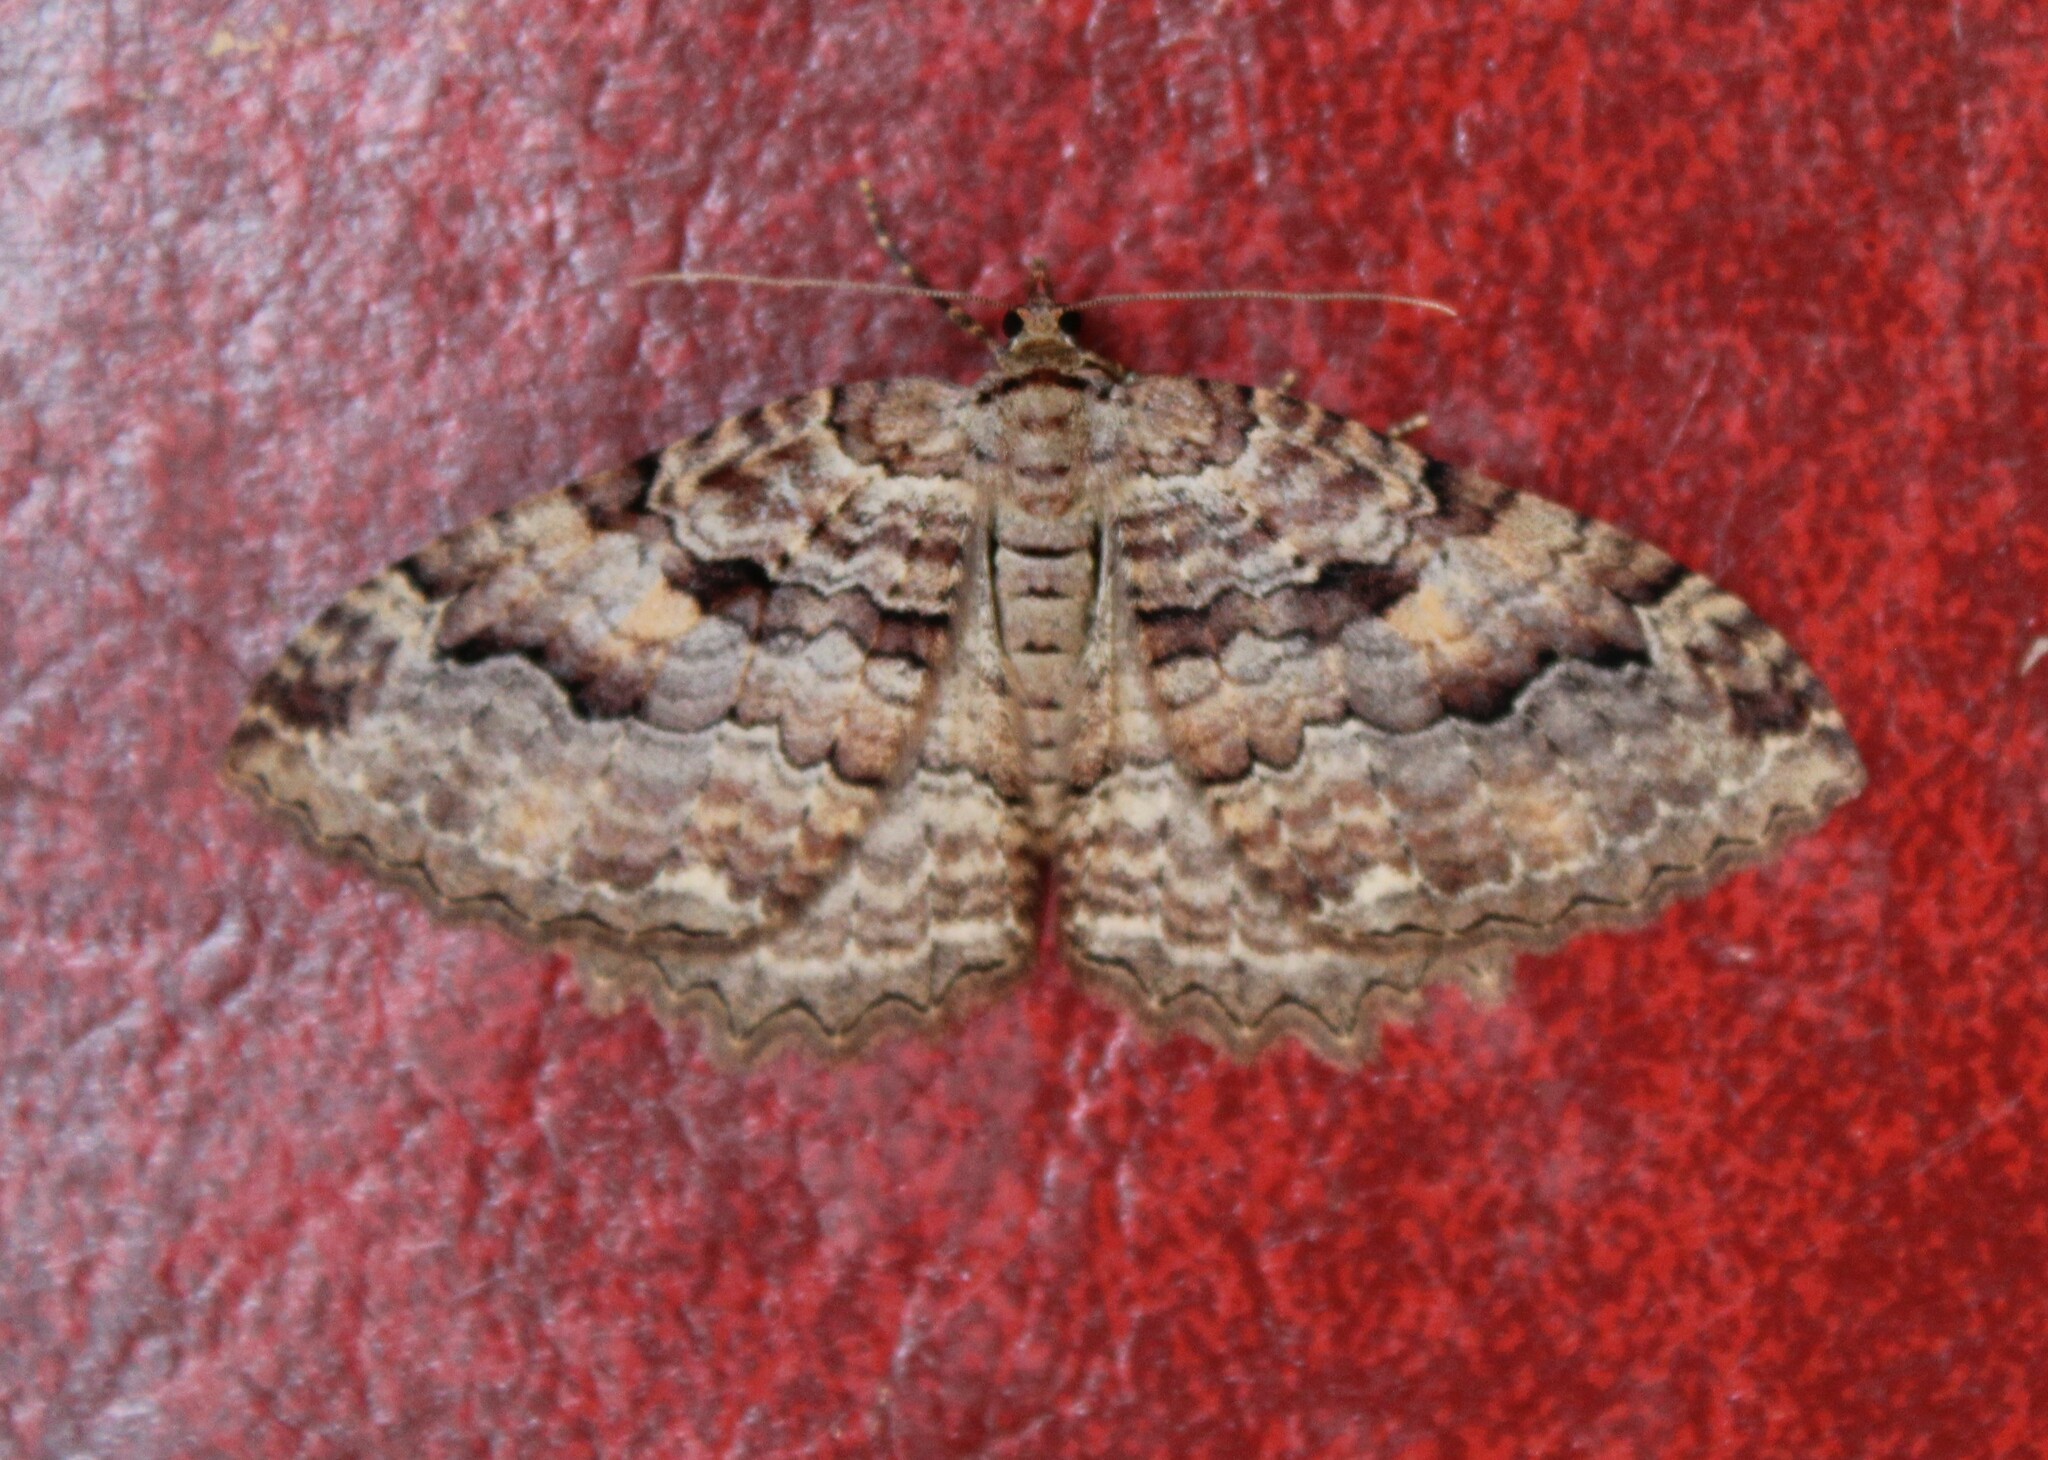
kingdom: Animalia
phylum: Arthropoda
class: Insecta
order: Lepidoptera
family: Geometridae
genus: Triphosa
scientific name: Triphosa haesitata
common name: Tissue moth
